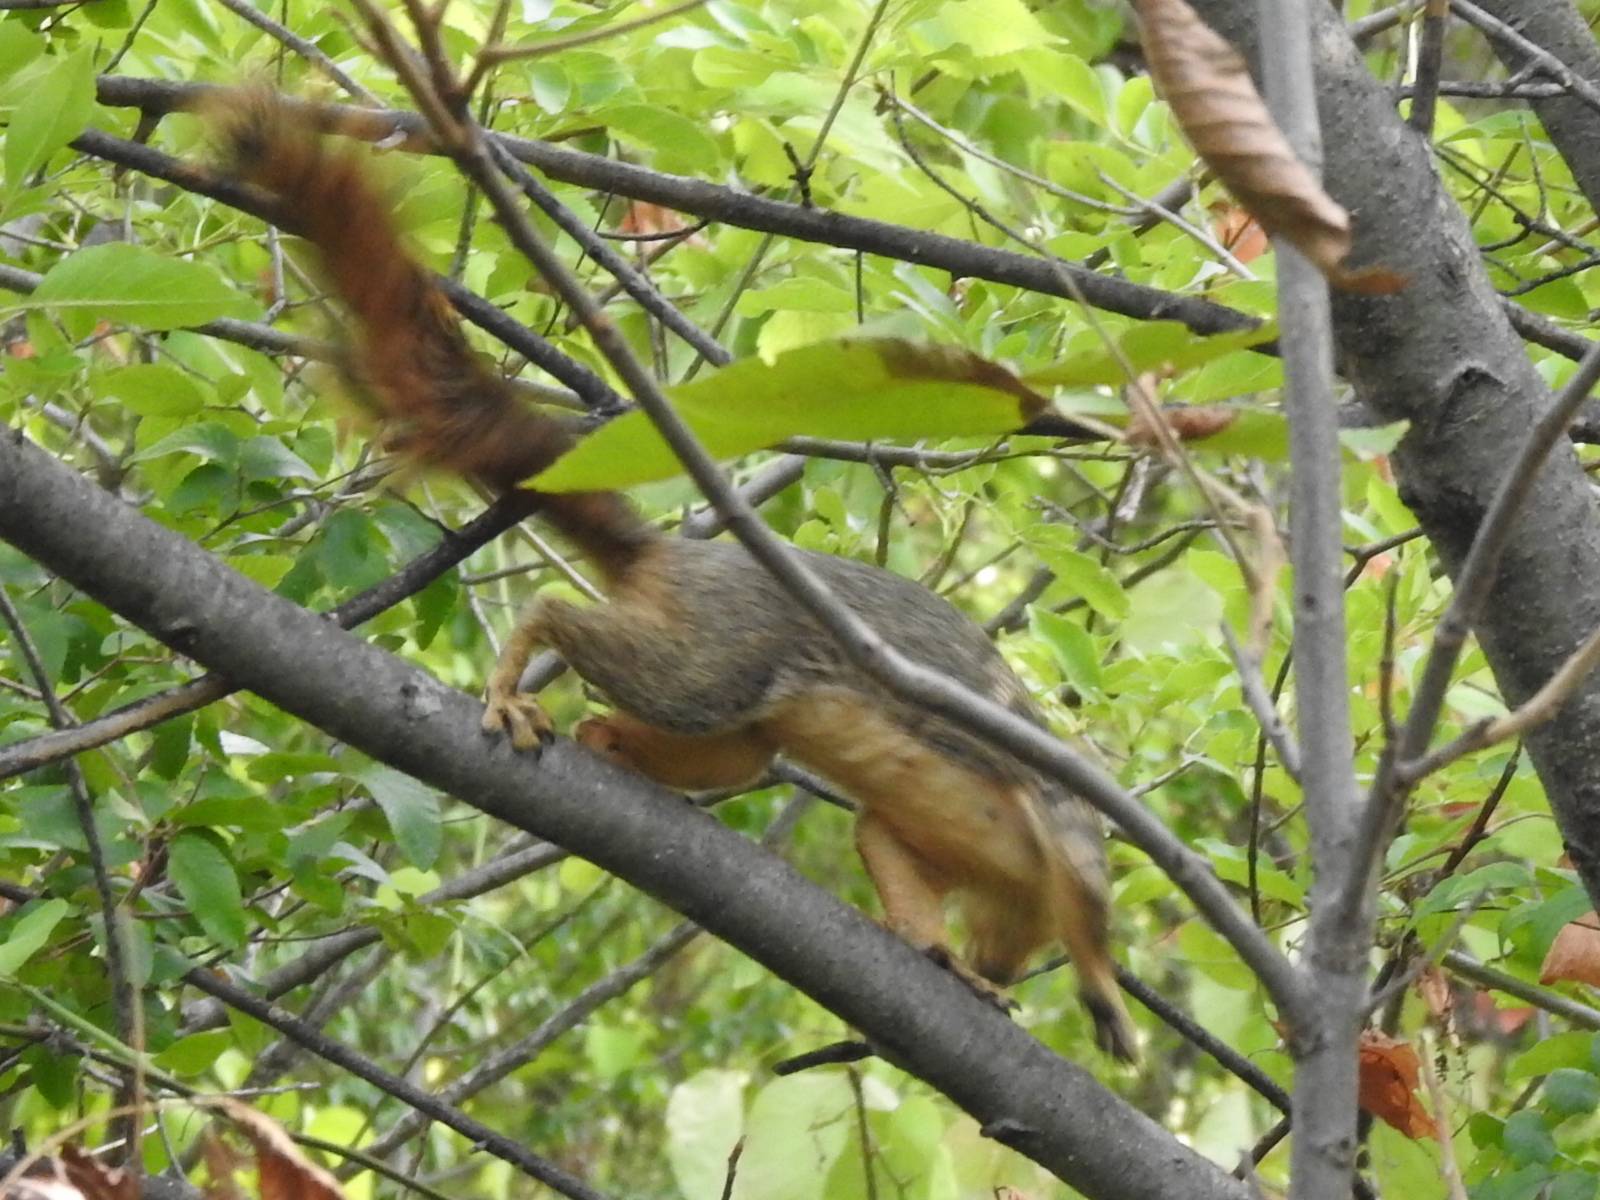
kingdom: Animalia
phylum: Chordata
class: Mammalia
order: Rodentia
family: Sciuridae
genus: Sciurus
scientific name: Sciurus niger
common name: Fox squirrel
